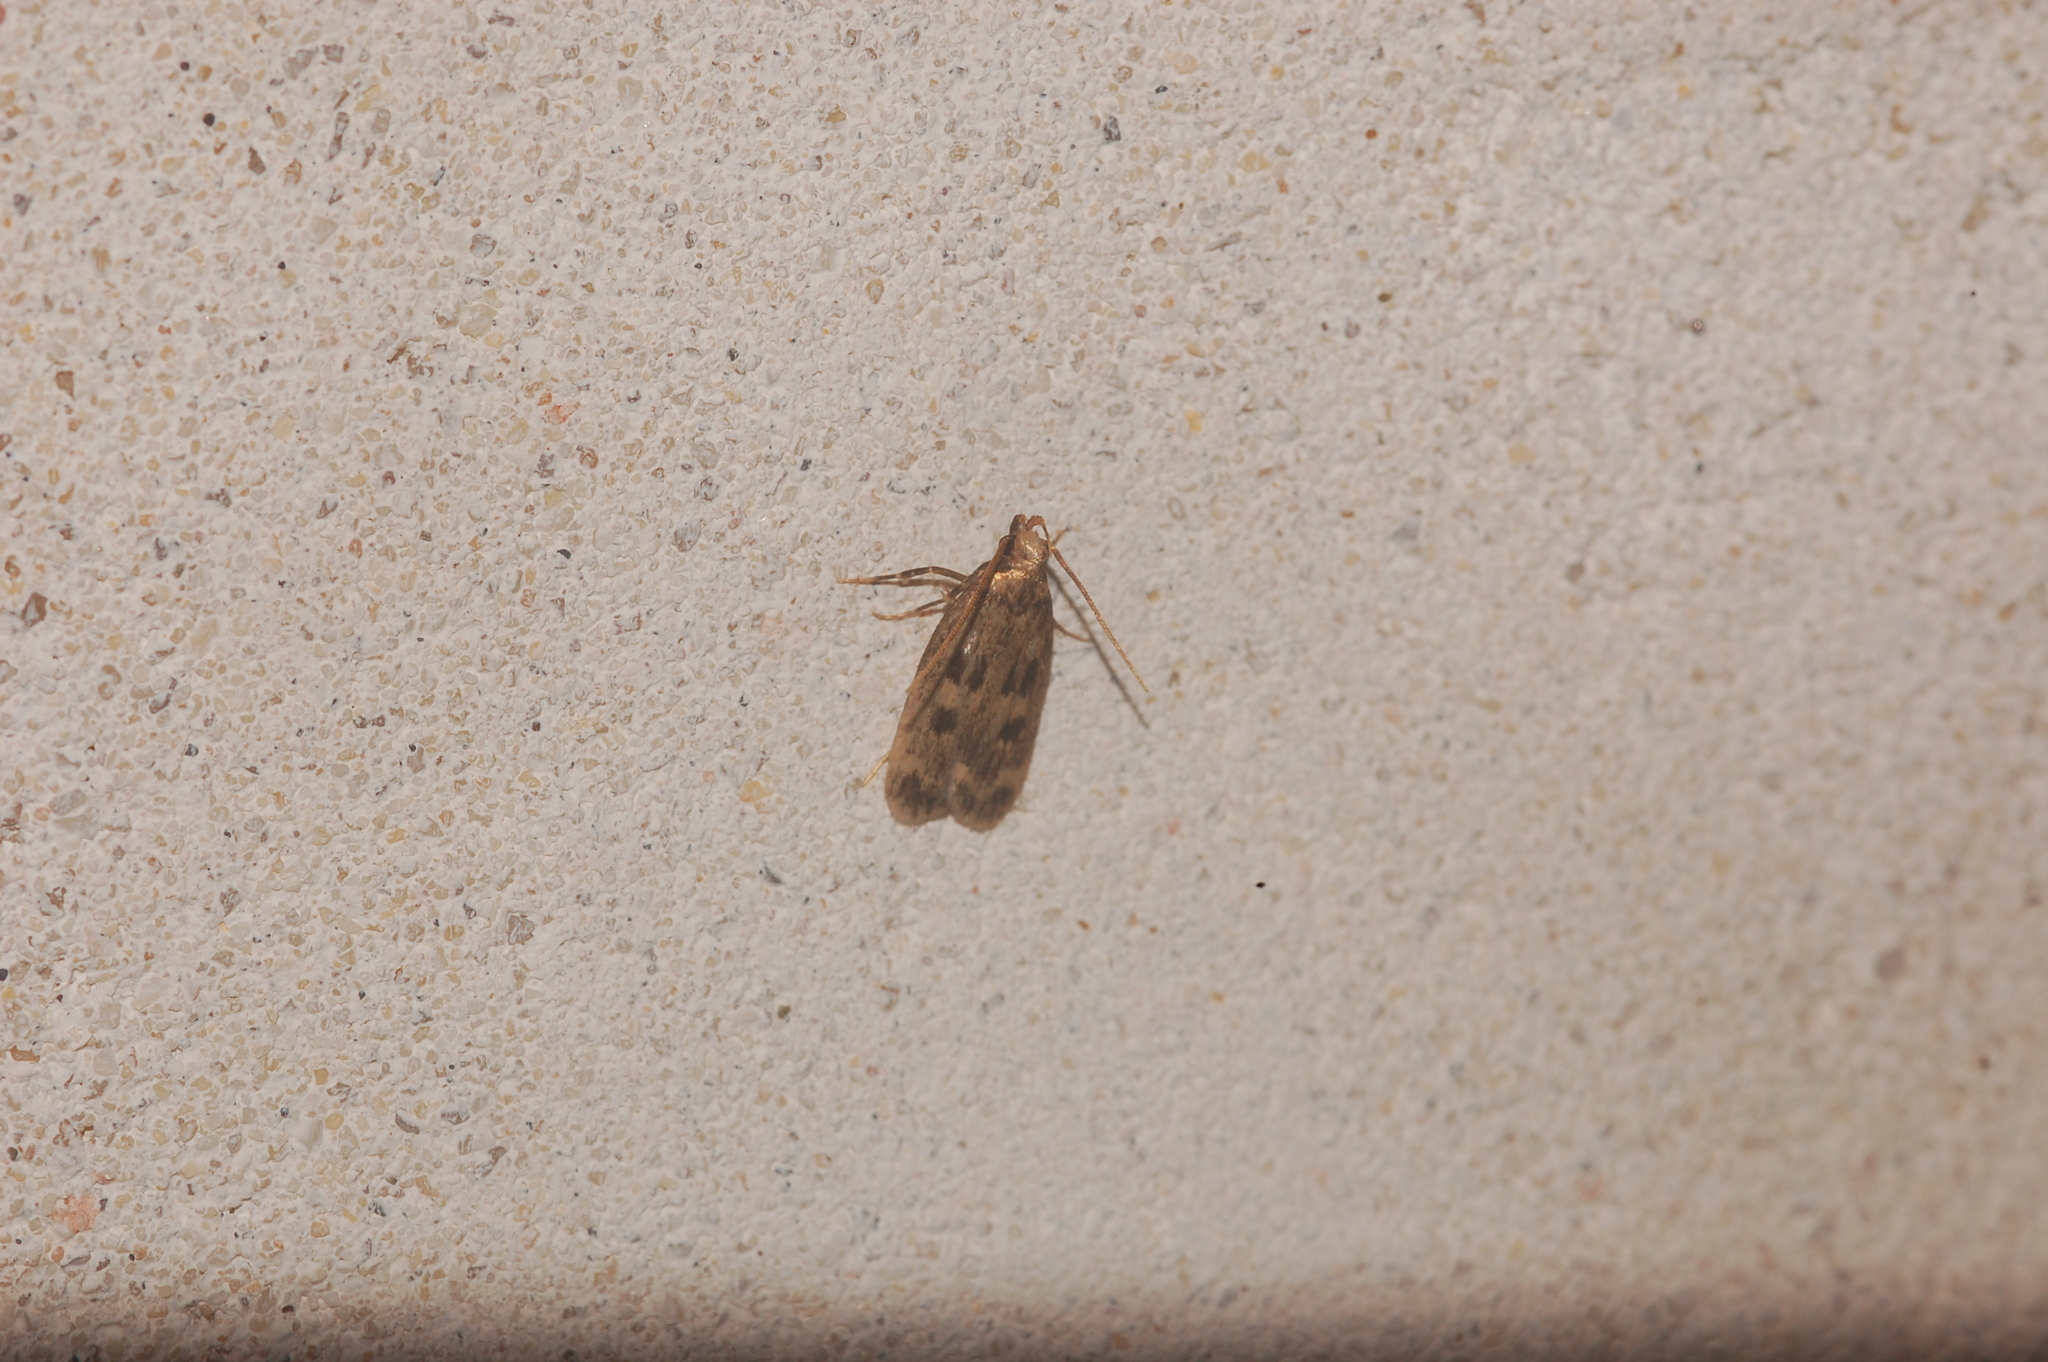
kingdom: Animalia
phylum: Arthropoda
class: Insecta
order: Lepidoptera
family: Lecithoceridae
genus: Martyringa
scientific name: Martyringa latipennis
